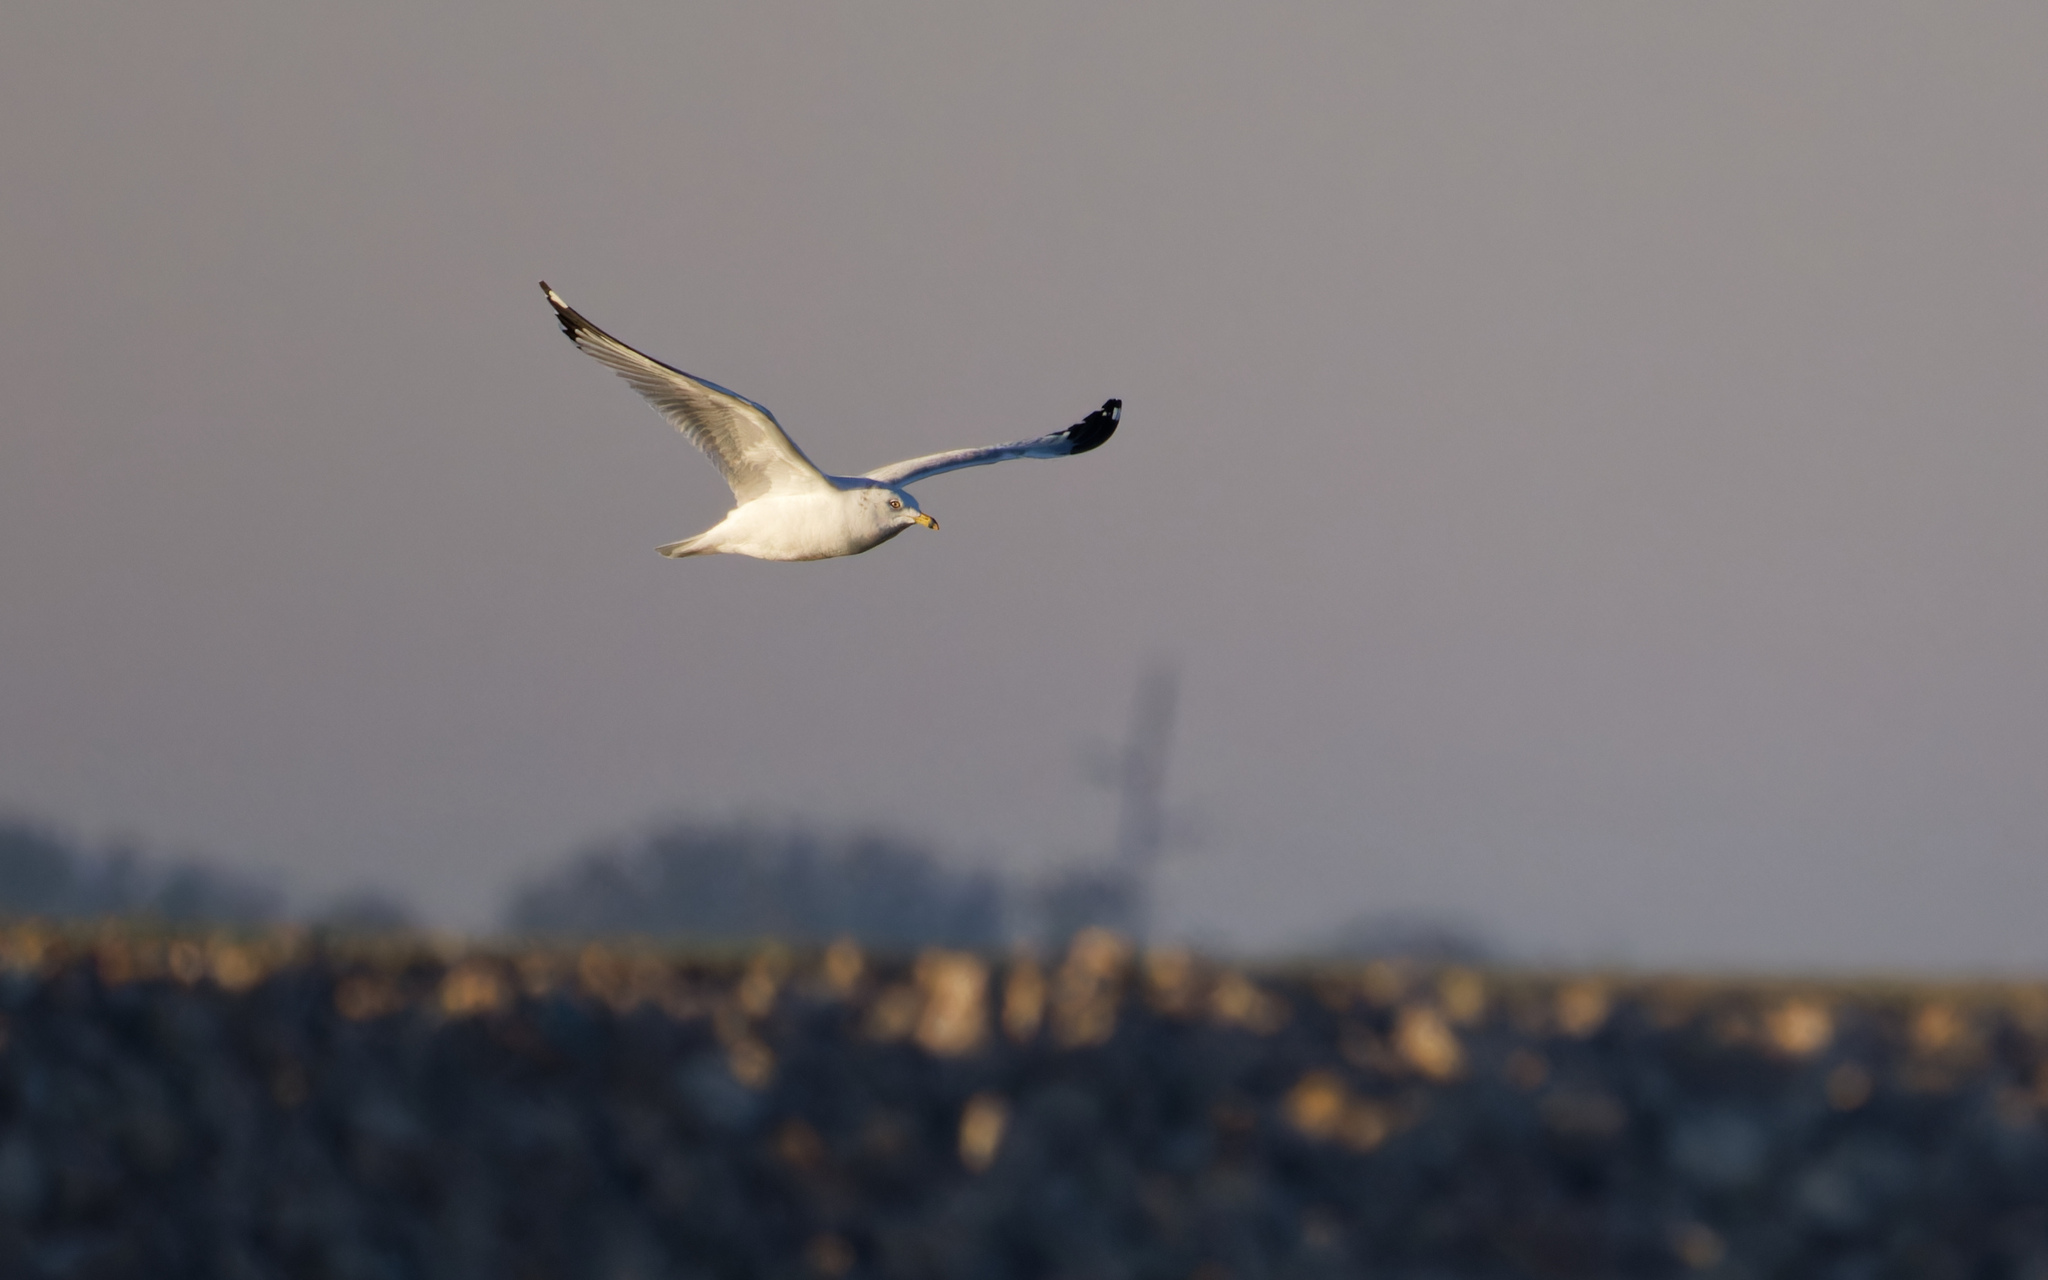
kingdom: Animalia
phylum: Chordata
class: Aves
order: Charadriiformes
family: Laridae
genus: Larus
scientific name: Larus delawarensis
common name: Ring-billed gull
